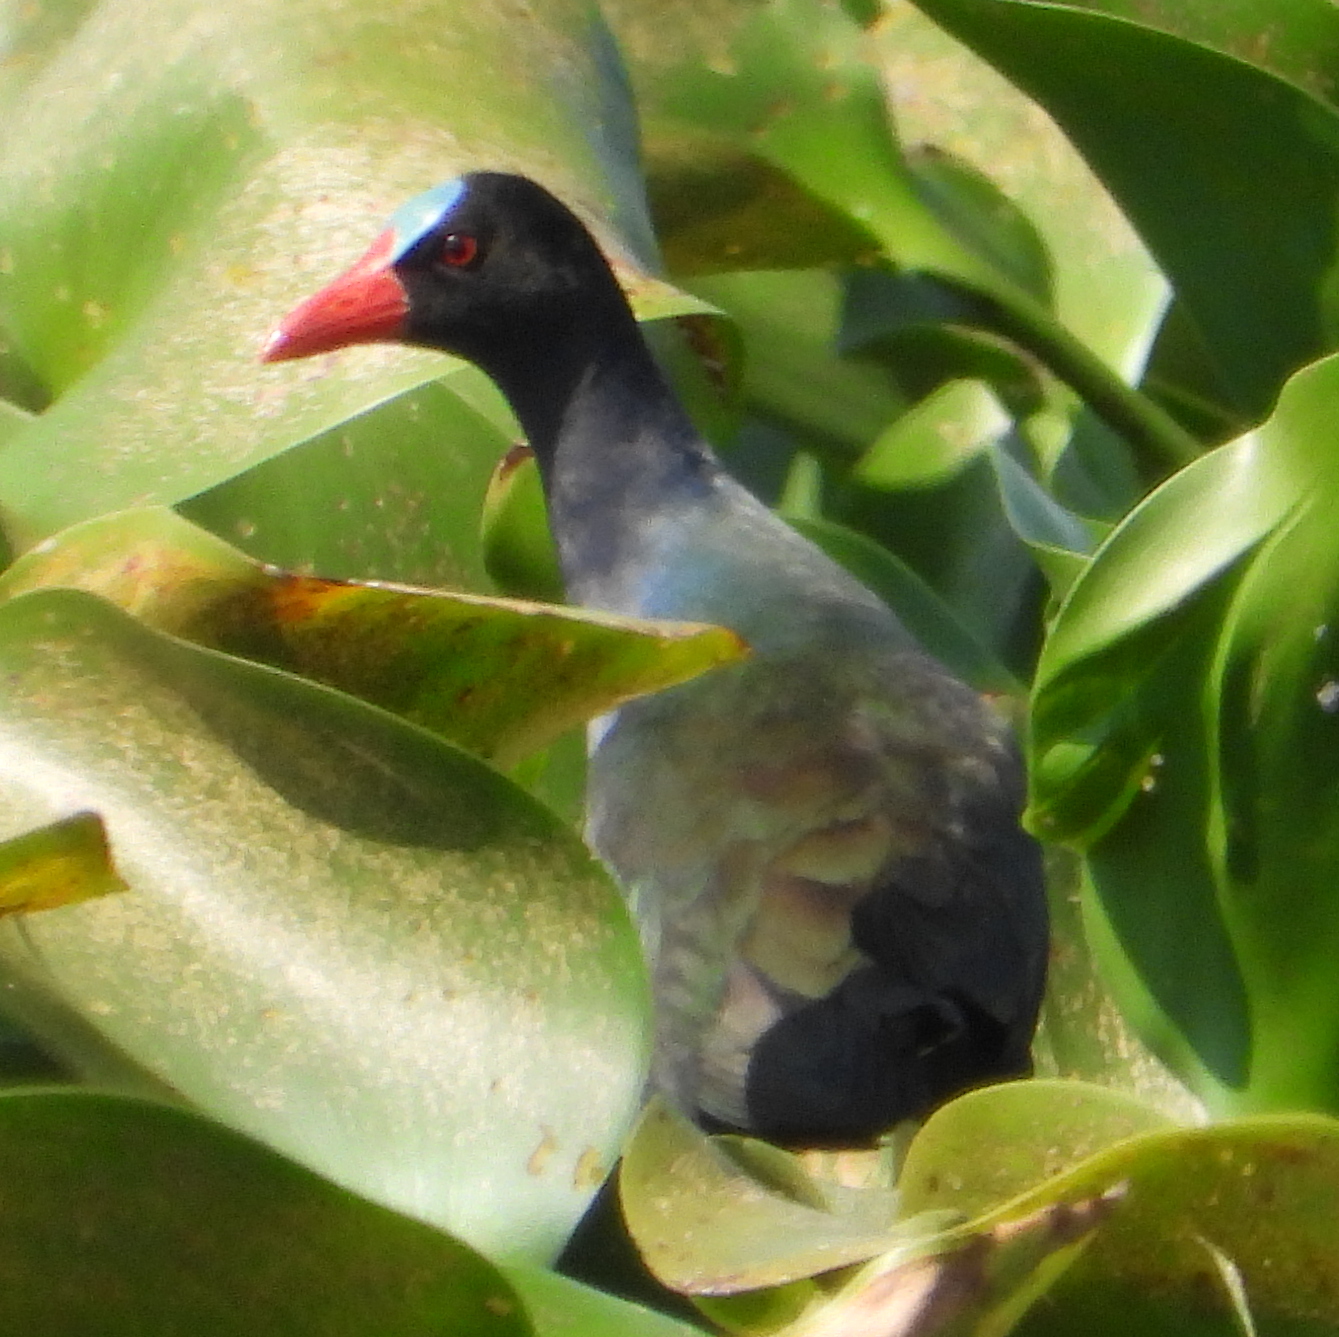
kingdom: Animalia
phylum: Chordata
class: Aves
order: Gruiformes
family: Rallidae
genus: Porphyrio
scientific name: Porphyrio alleni
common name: Allen's gallinule
